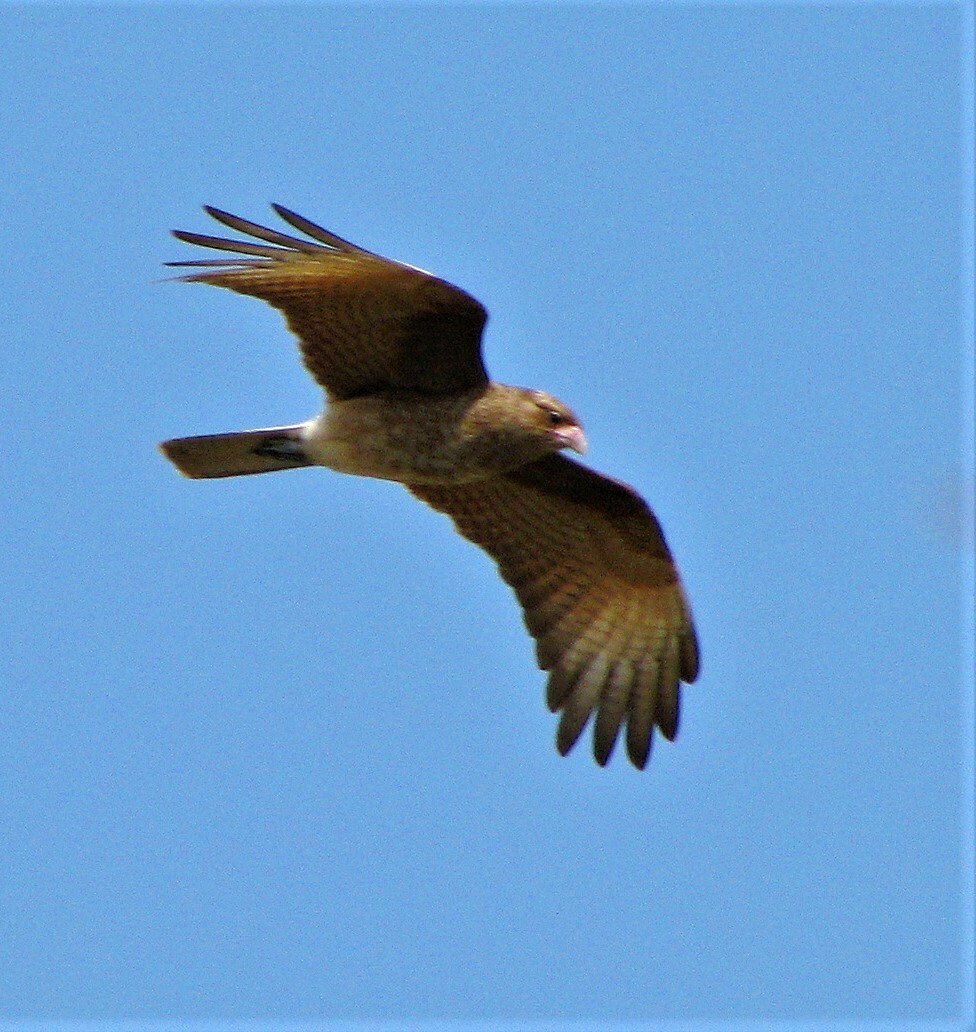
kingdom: Animalia
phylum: Chordata
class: Aves
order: Falconiformes
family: Falconidae
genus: Daptrius
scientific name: Daptrius
